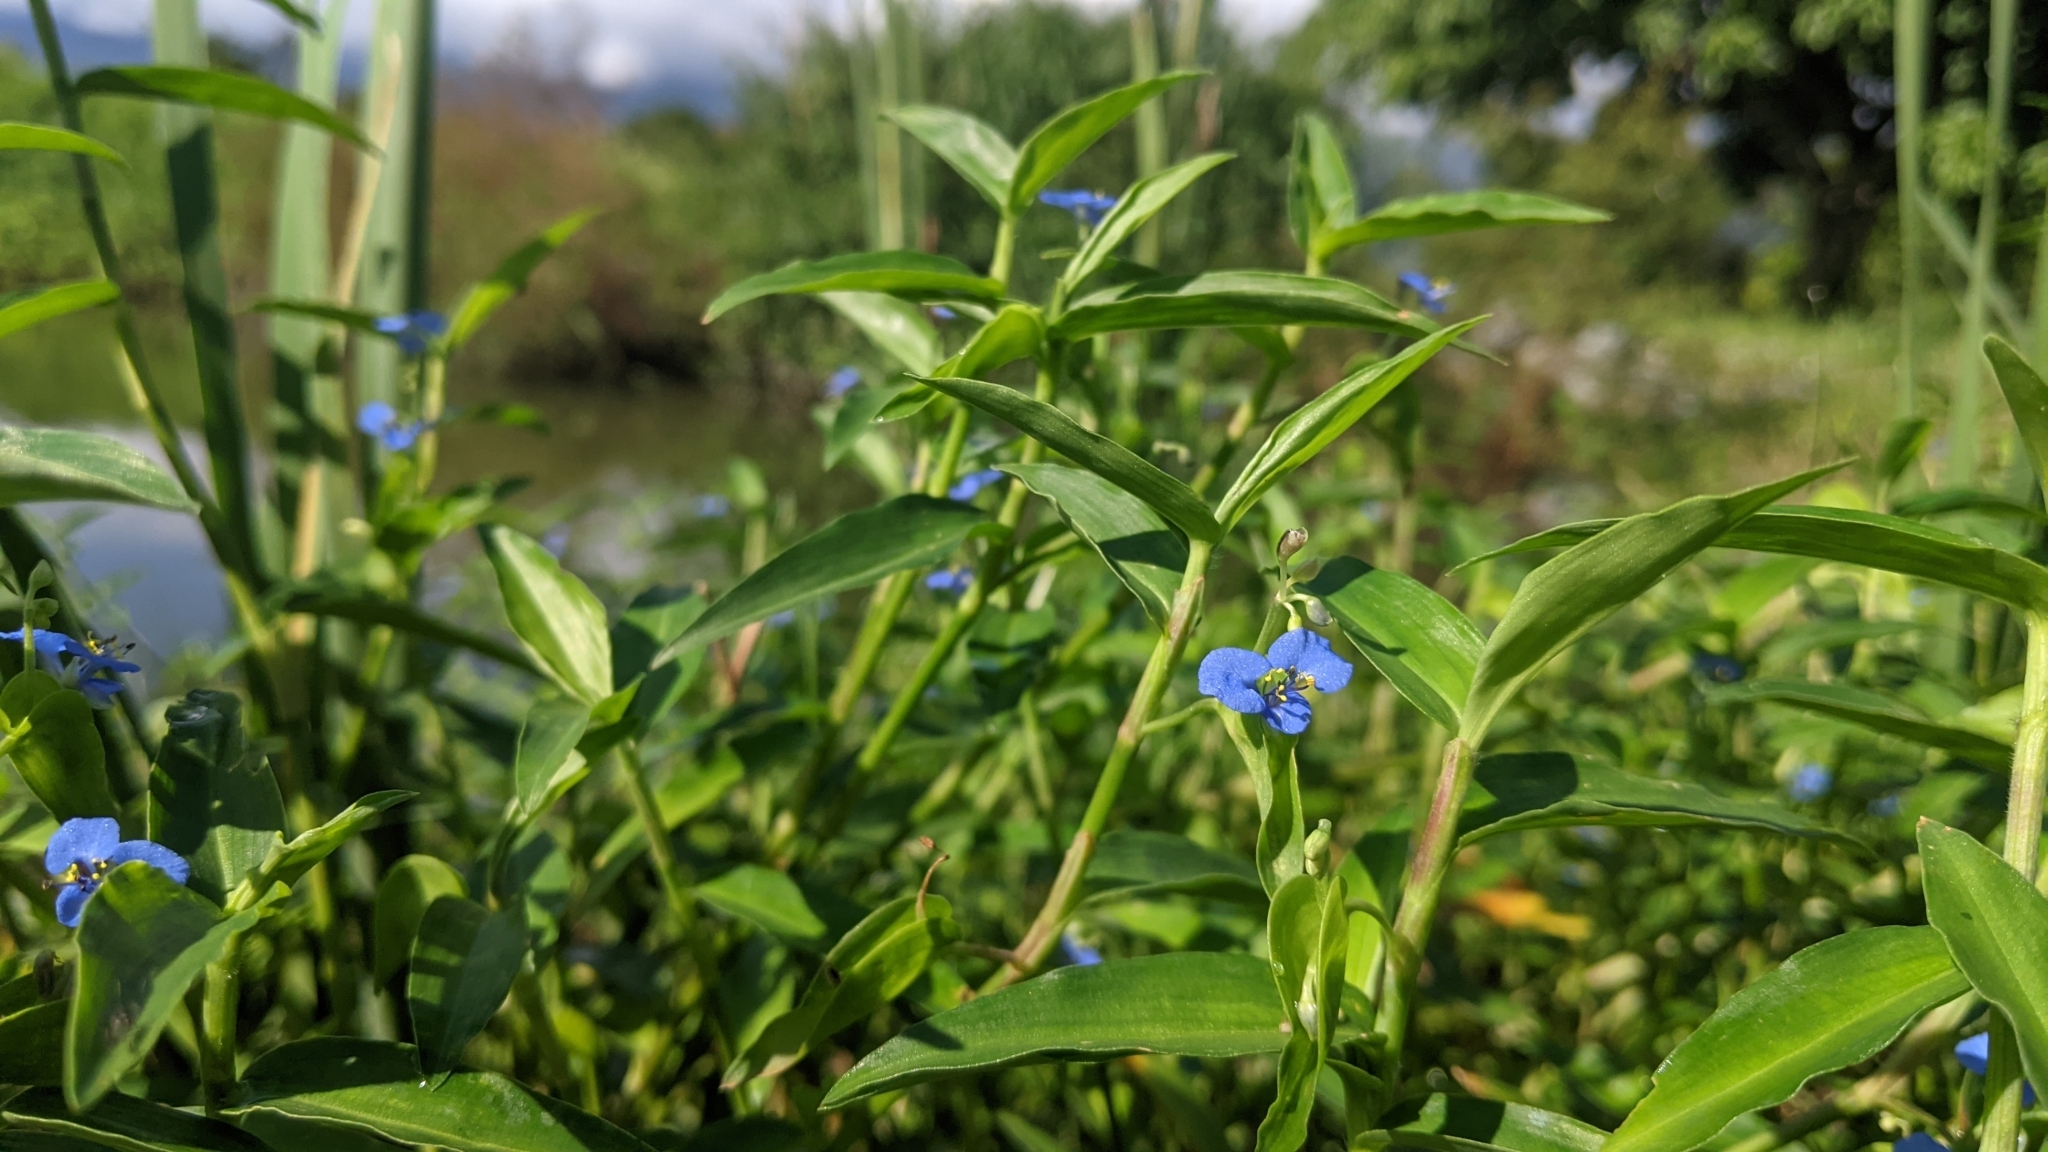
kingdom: Plantae
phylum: Tracheophyta
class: Liliopsida
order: Commelinales
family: Commelinaceae
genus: Commelina
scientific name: Commelina diffusa
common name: Climbing dayflower
